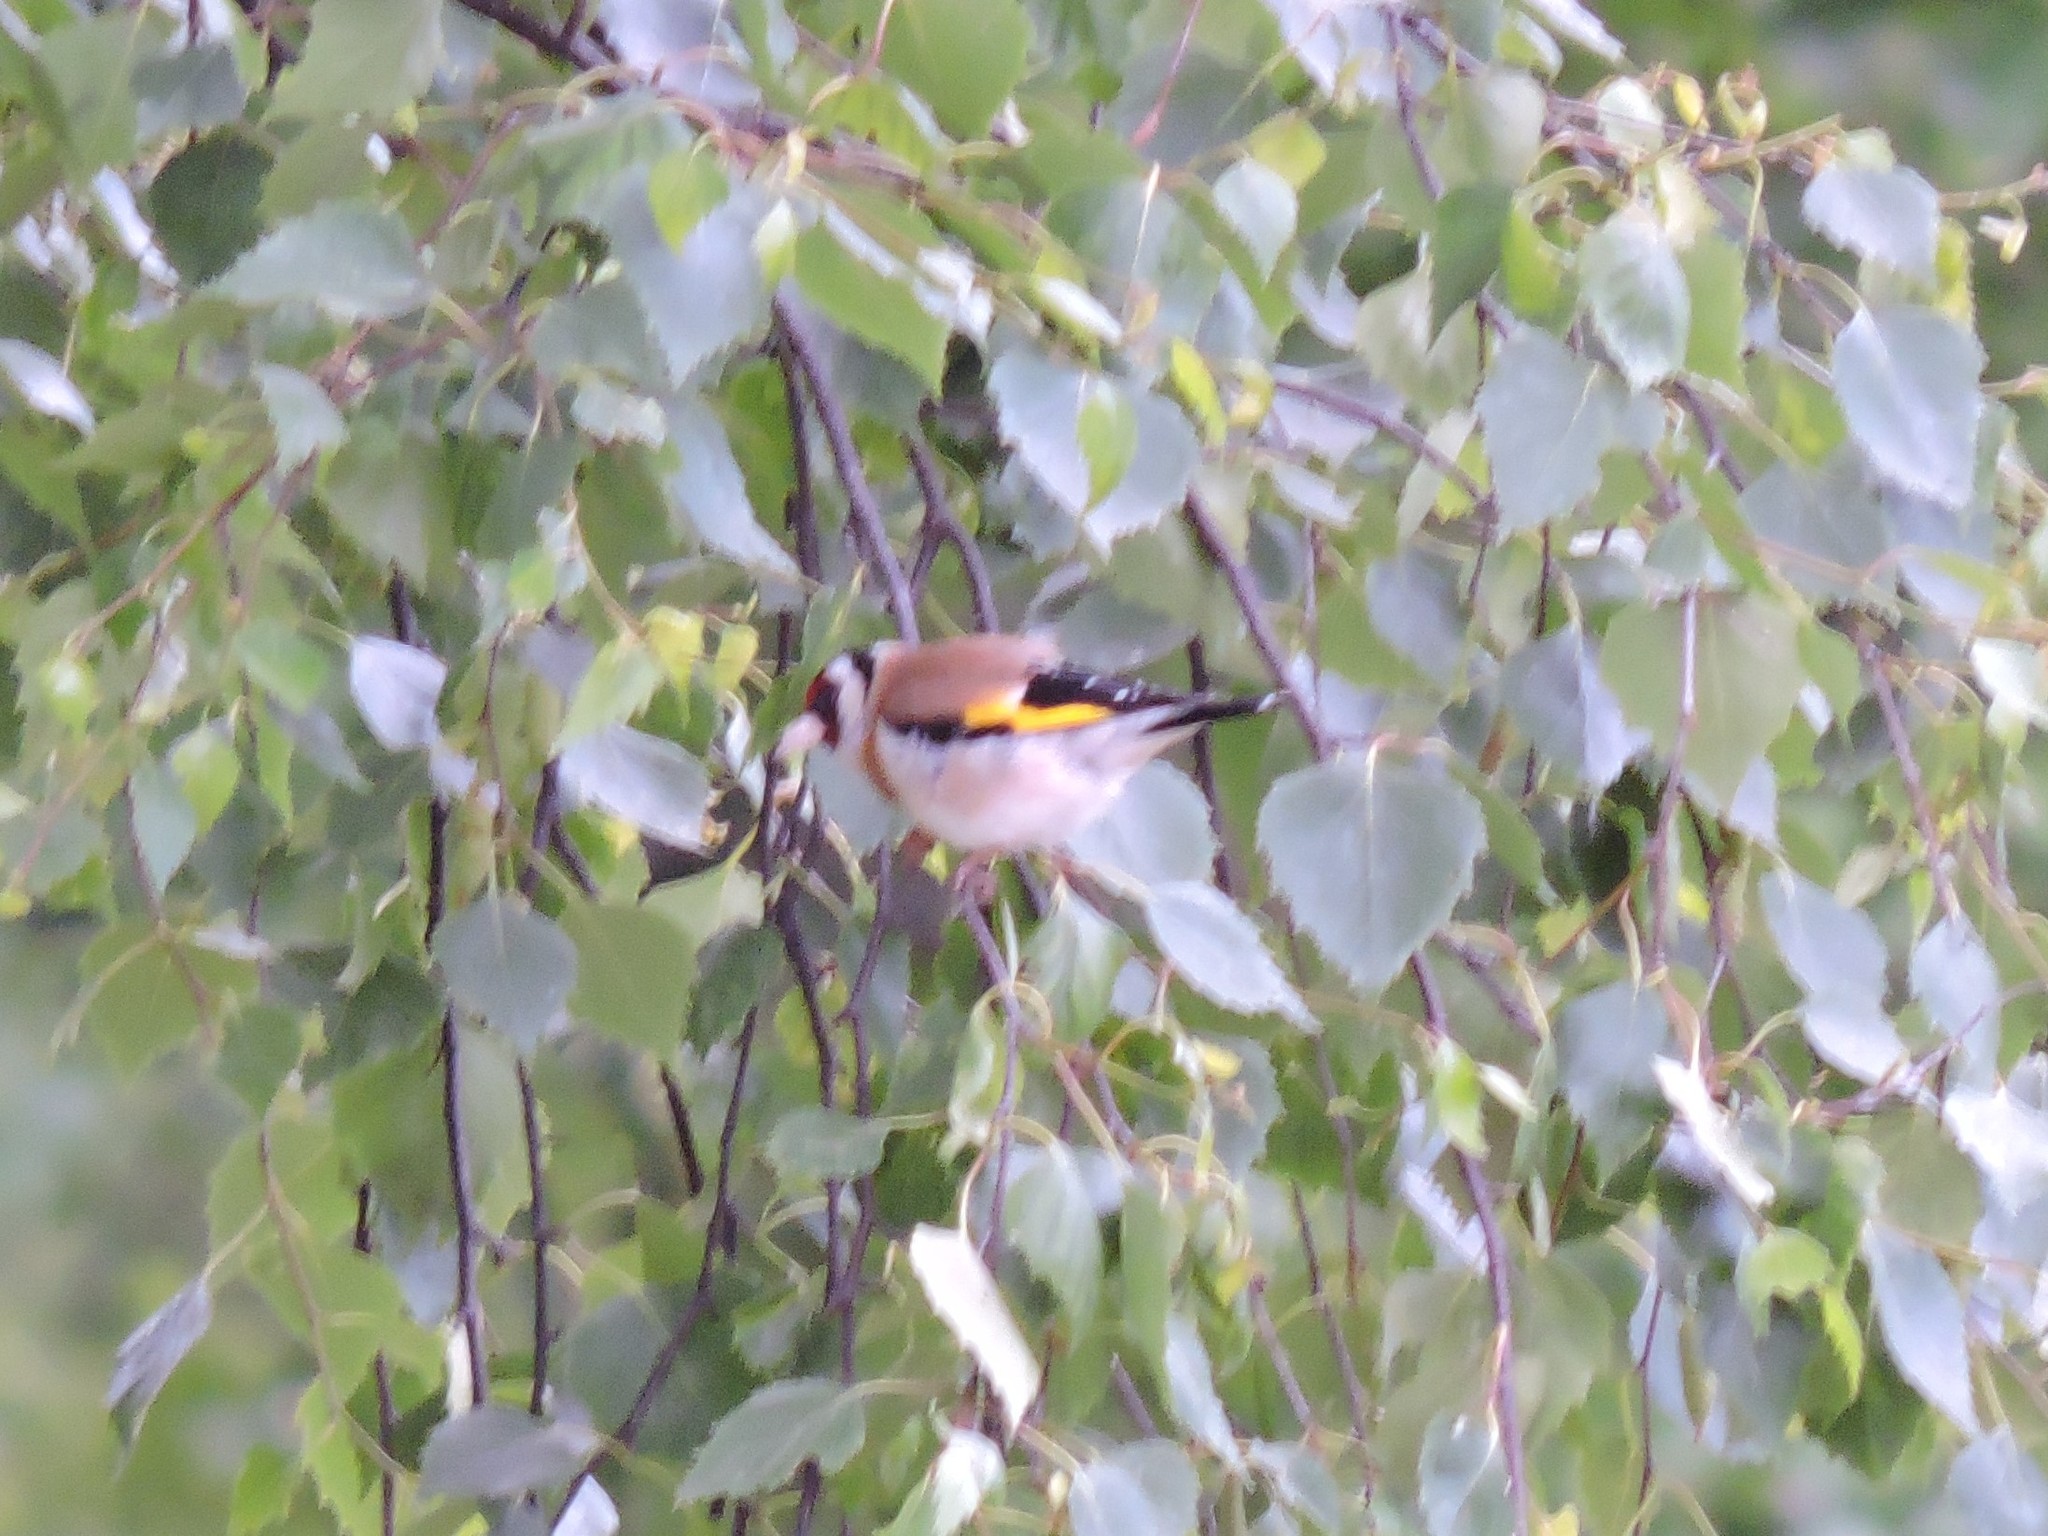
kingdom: Animalia
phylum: Chordata
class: Aves
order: Passeriformes
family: Fringillidae
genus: Carduelis
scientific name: Carduelis carduelis
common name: European goldfinch
